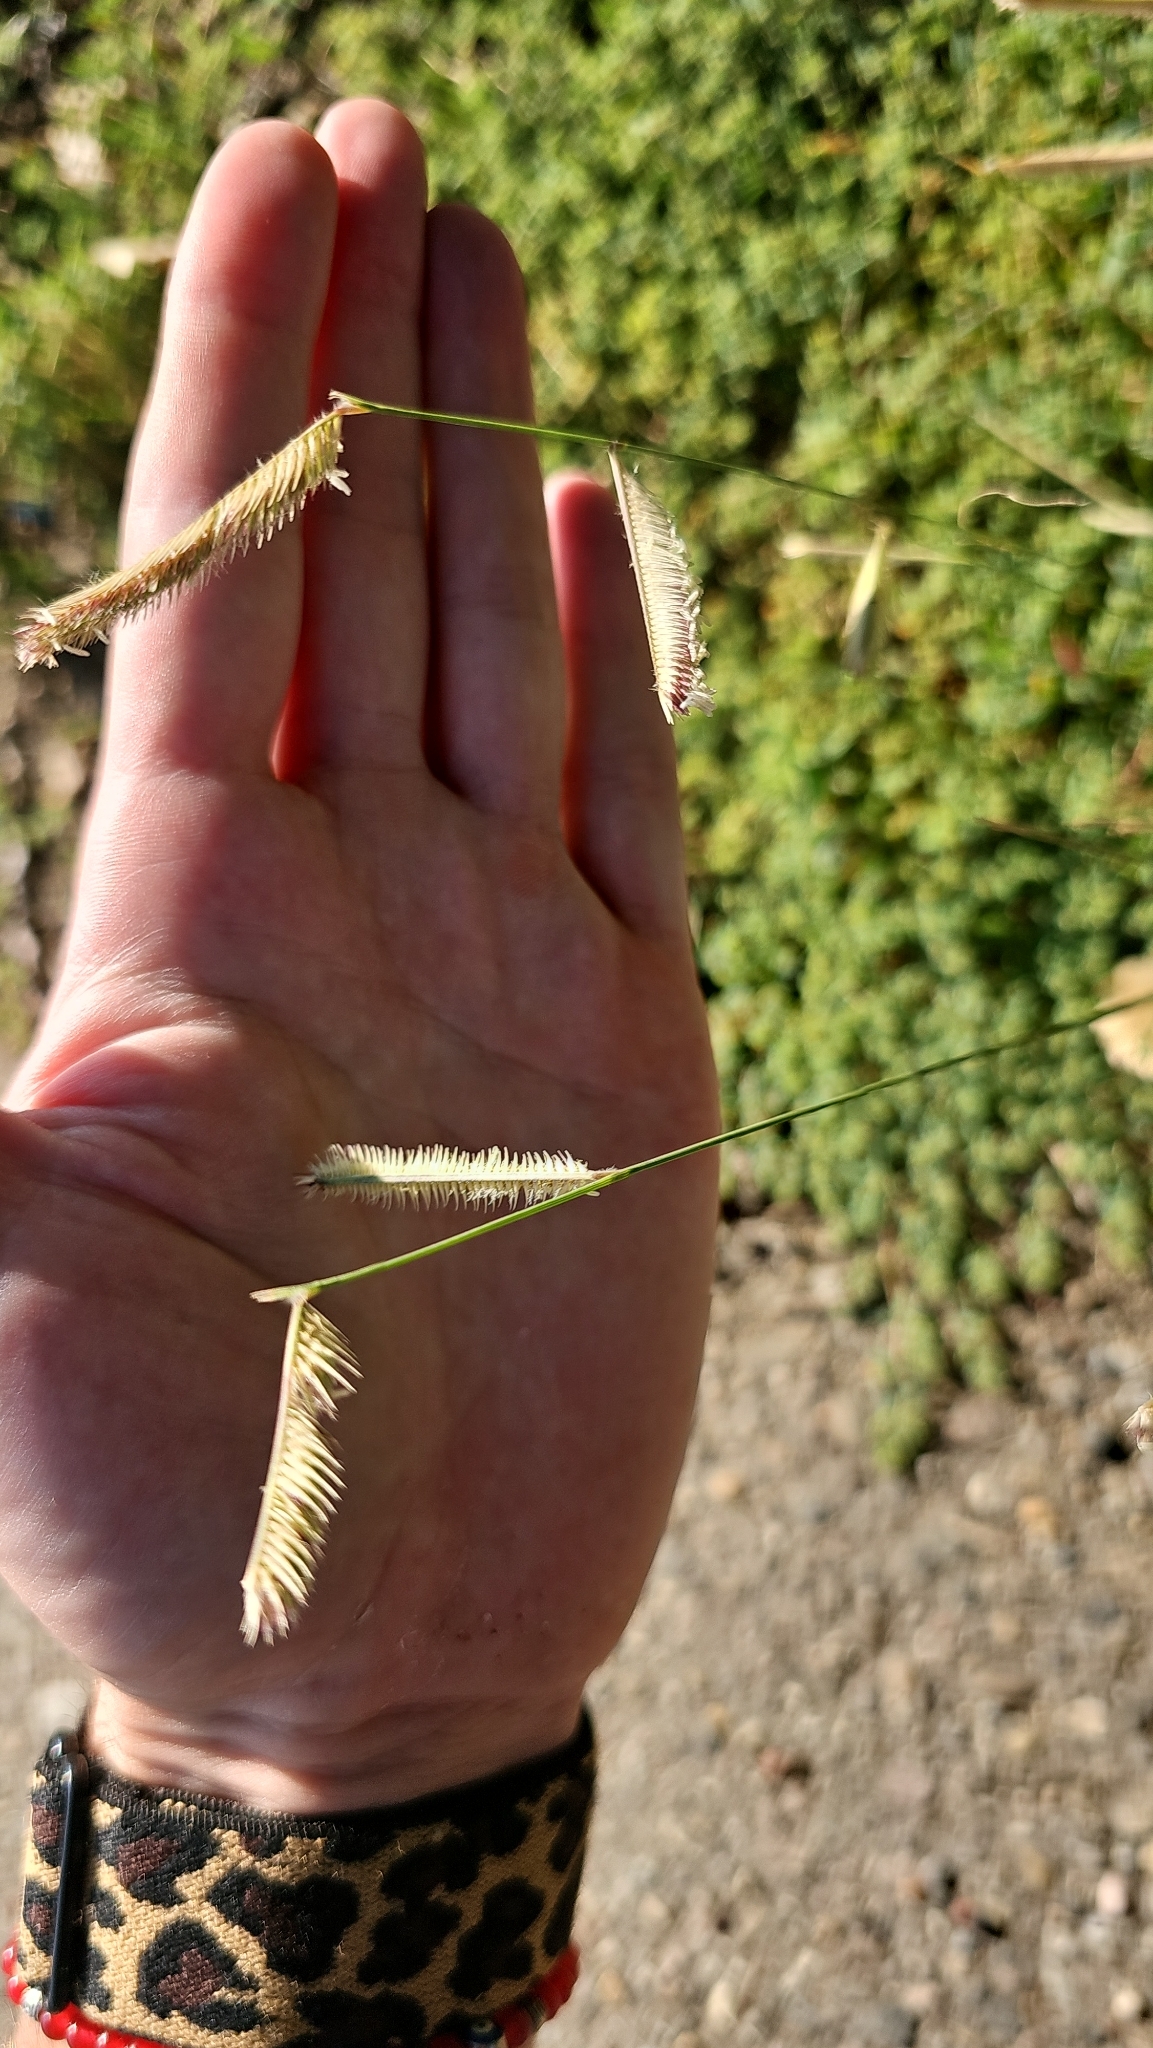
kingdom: Plantae
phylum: Tracheophyta
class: Liliopsida
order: Poales
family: Poaceae
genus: Bouteloua
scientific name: Bouteloua gracilis
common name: Blue grama
